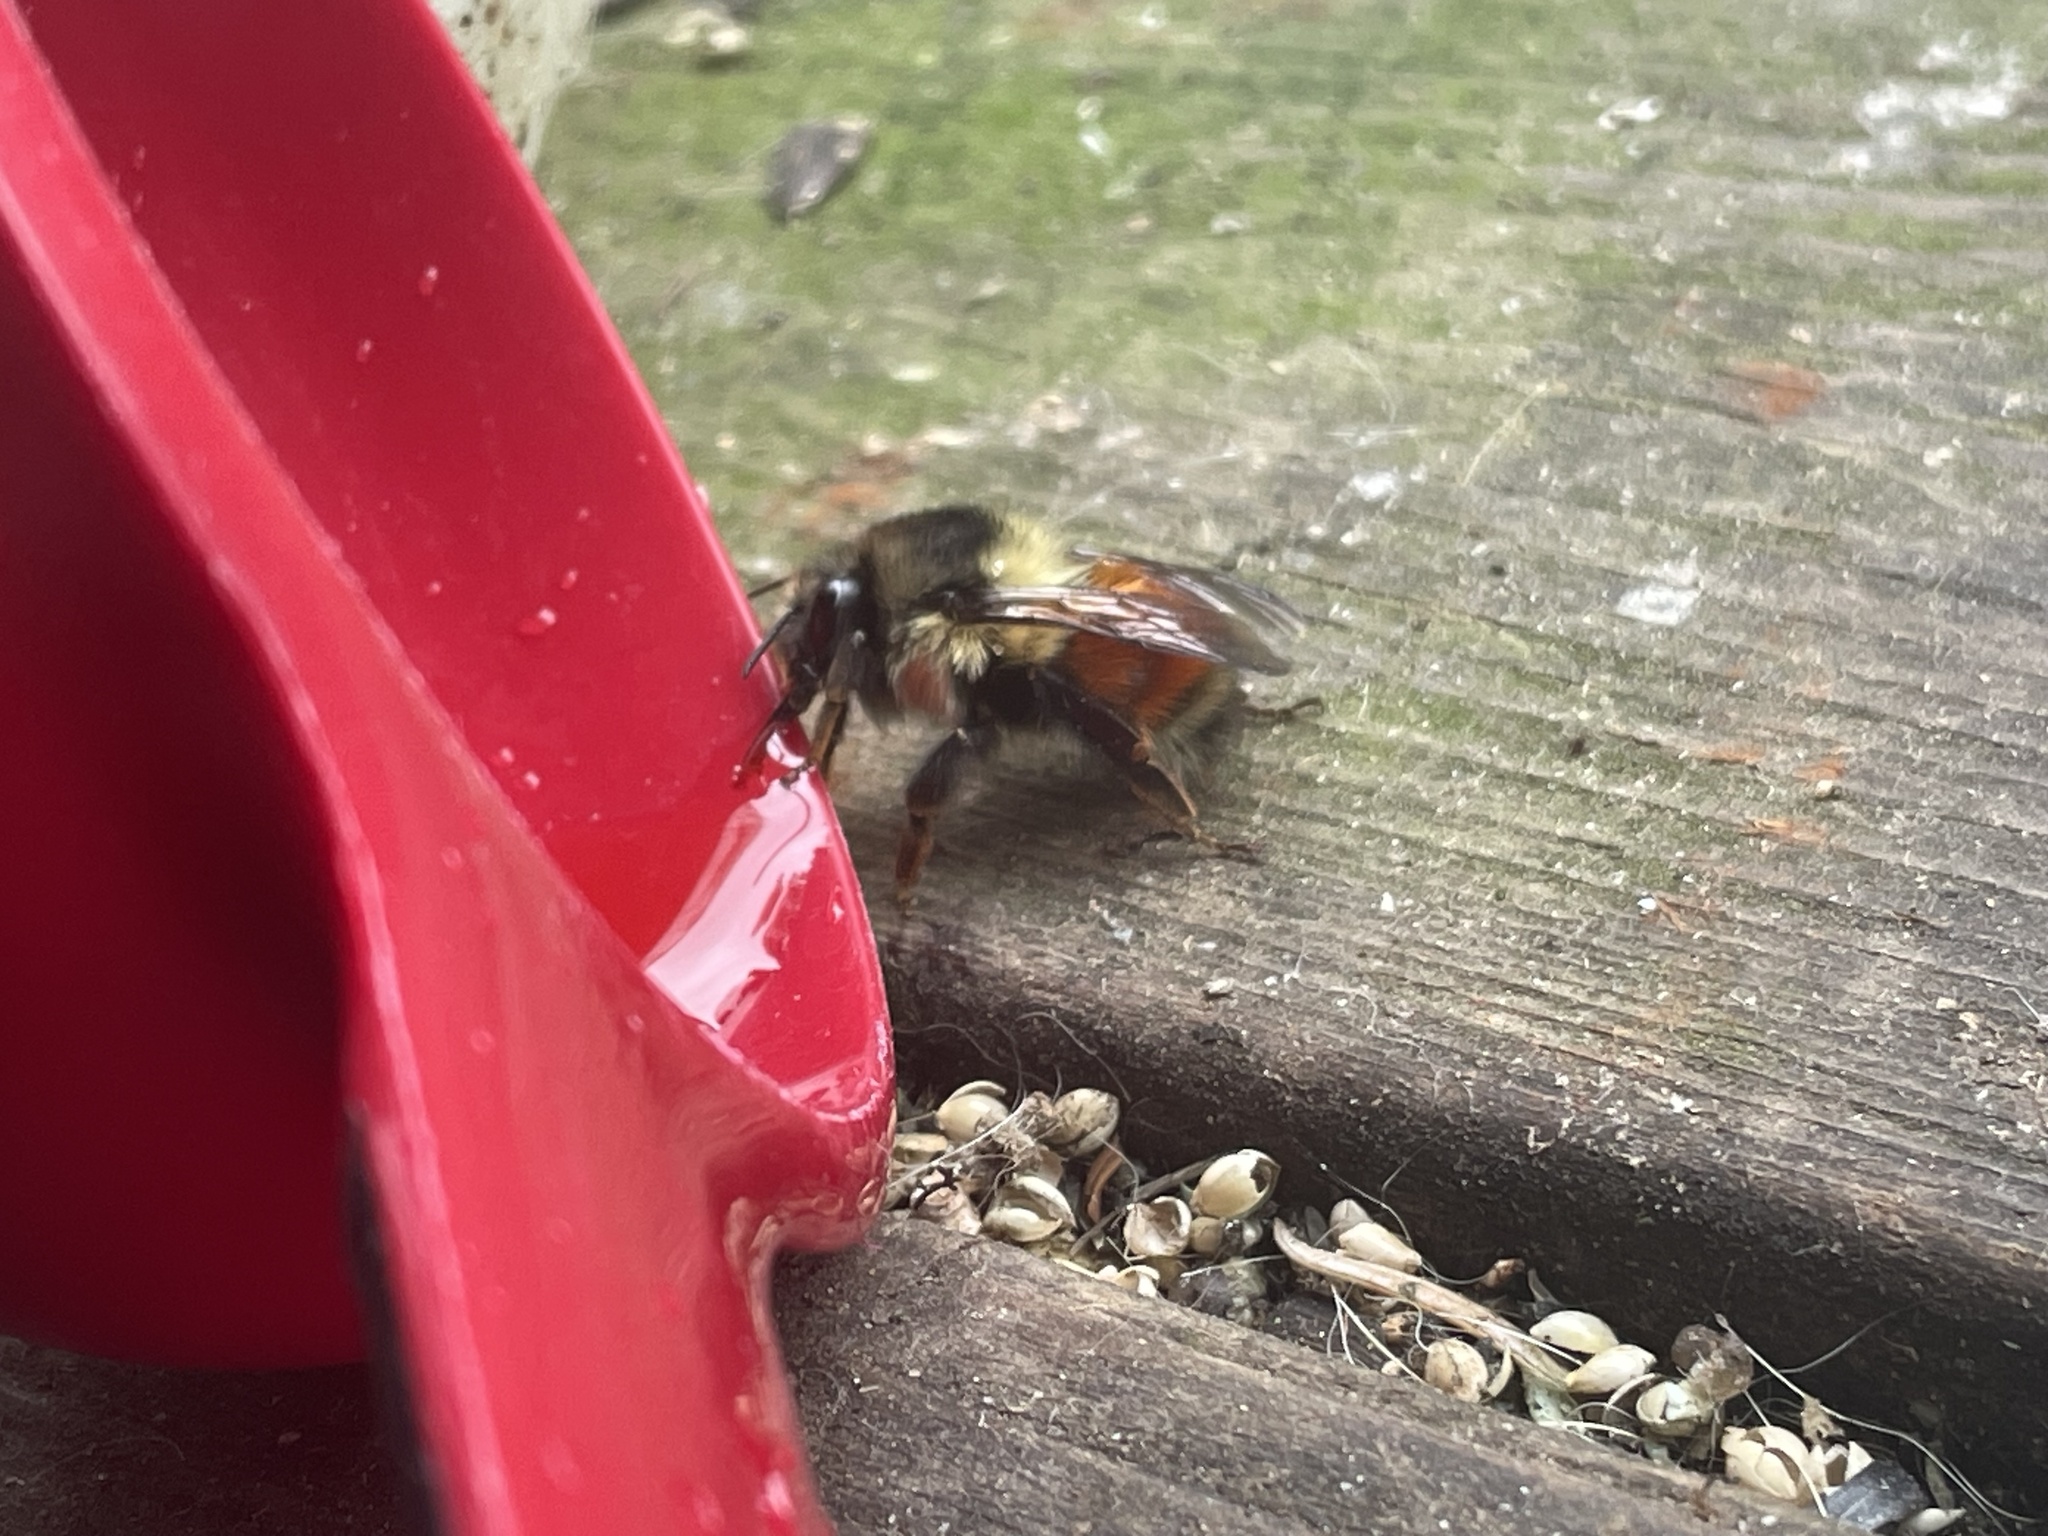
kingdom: Animalia
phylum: Arthropoda
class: Insecta
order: Hymenoptera
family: Apidae
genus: Bombus
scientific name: Bombus melanopygus
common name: Black tail bumble bee
